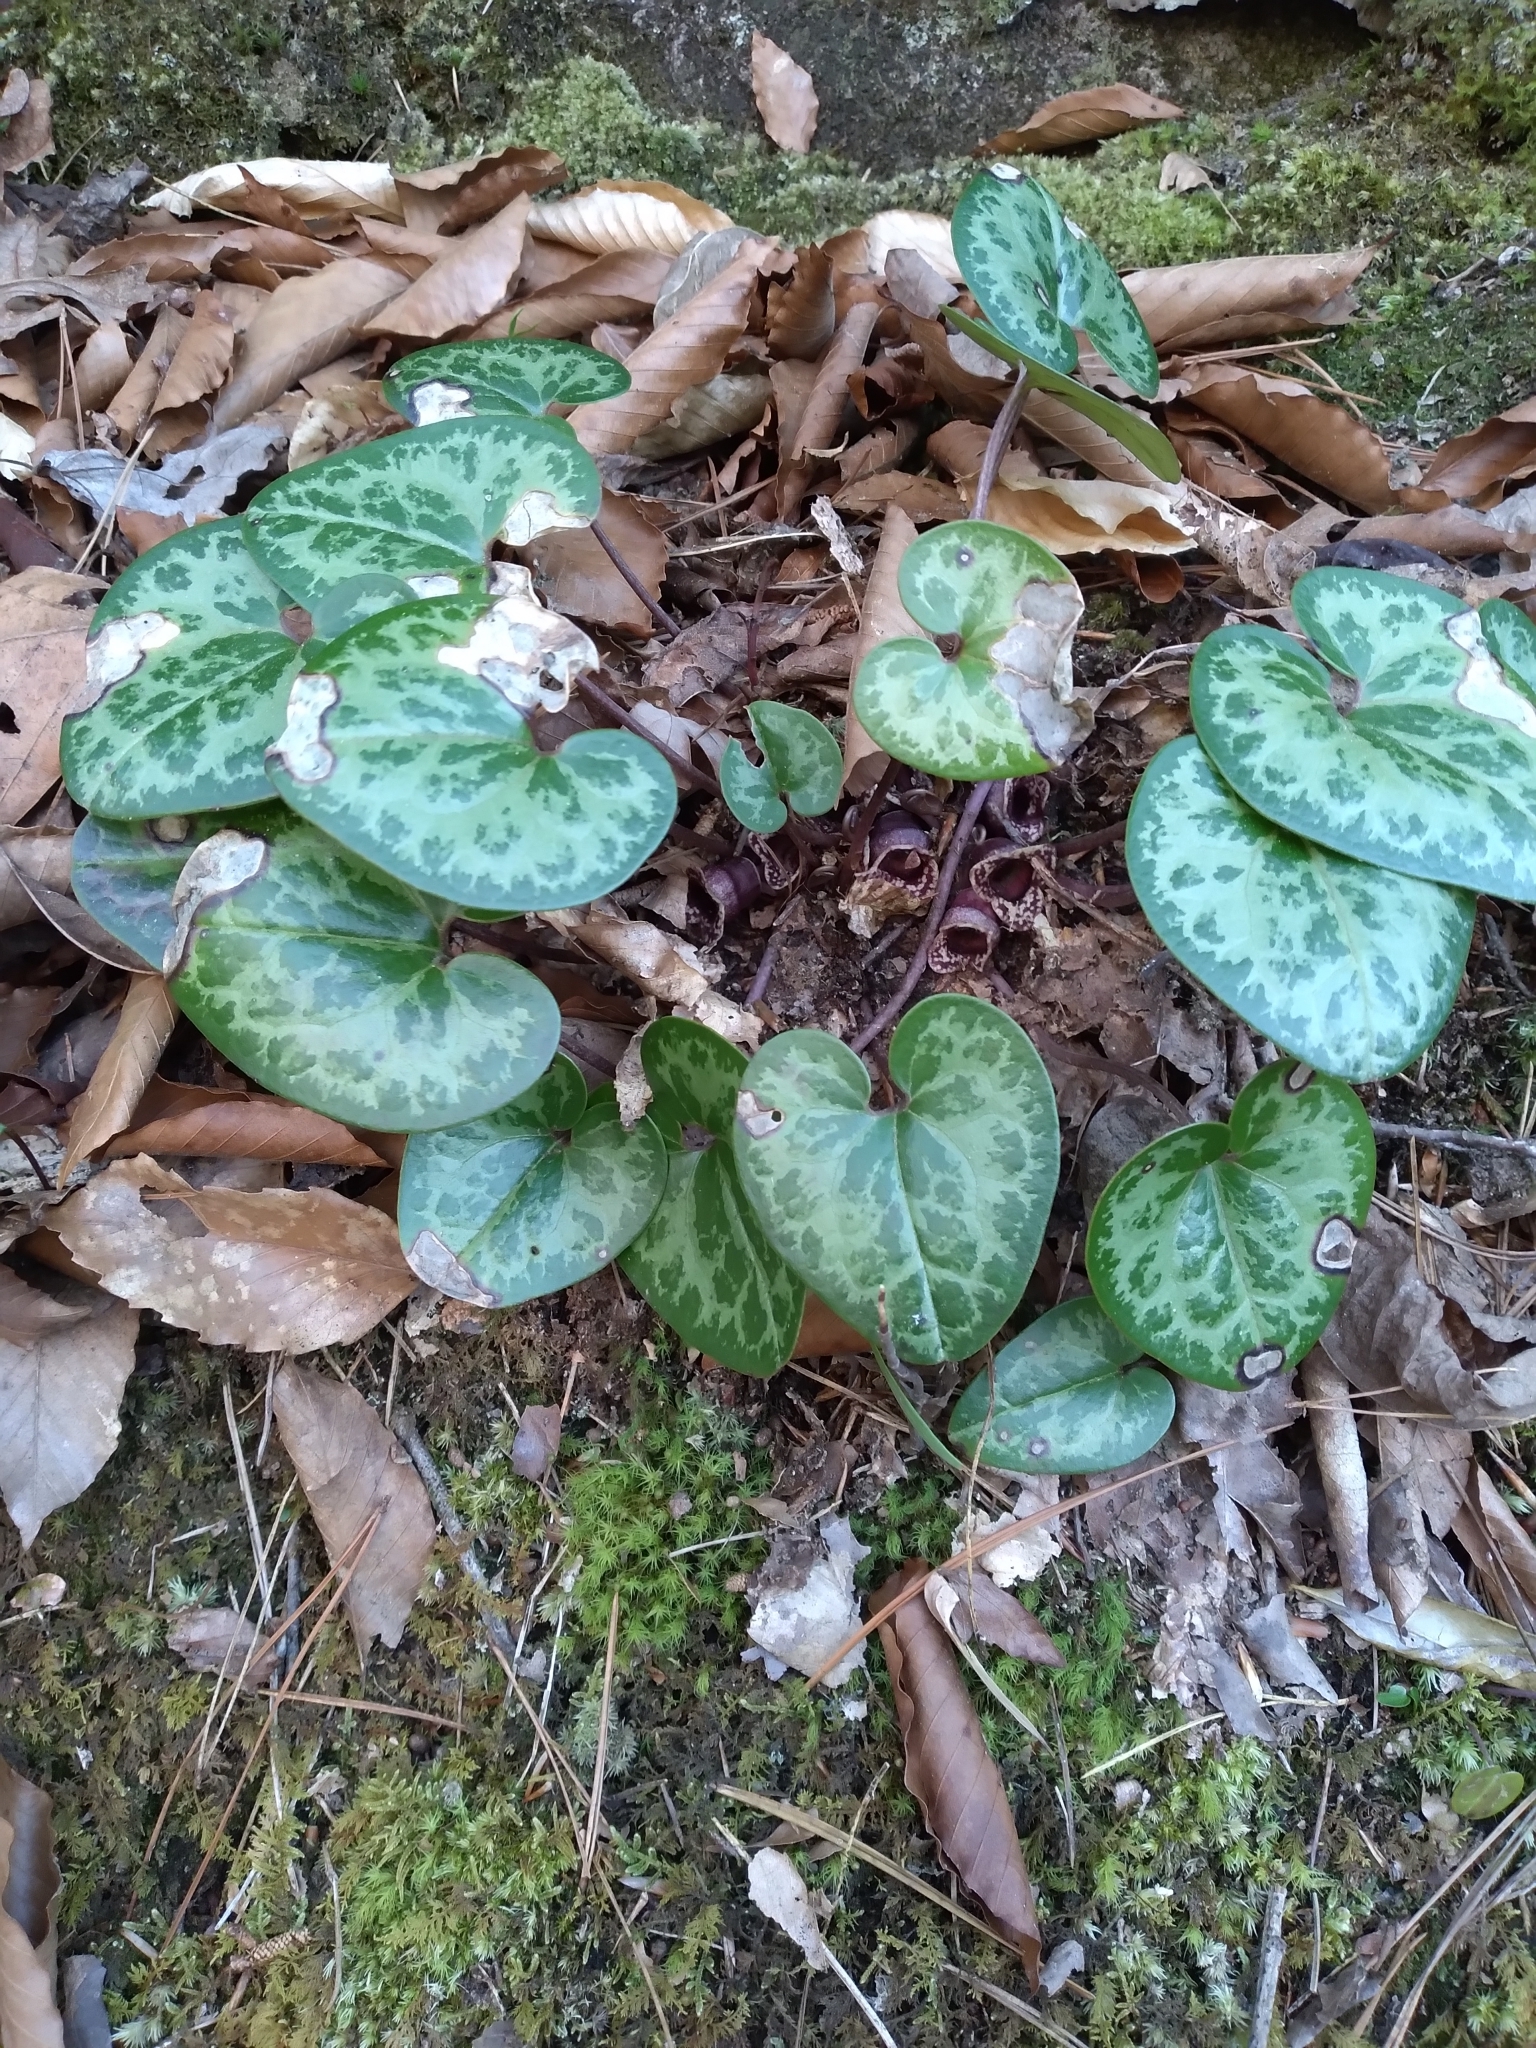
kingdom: Plantae
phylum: Tracheophyta
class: Magnoliopsida
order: Piperales
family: Aristolochiaceae
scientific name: Aristolochiaceae
